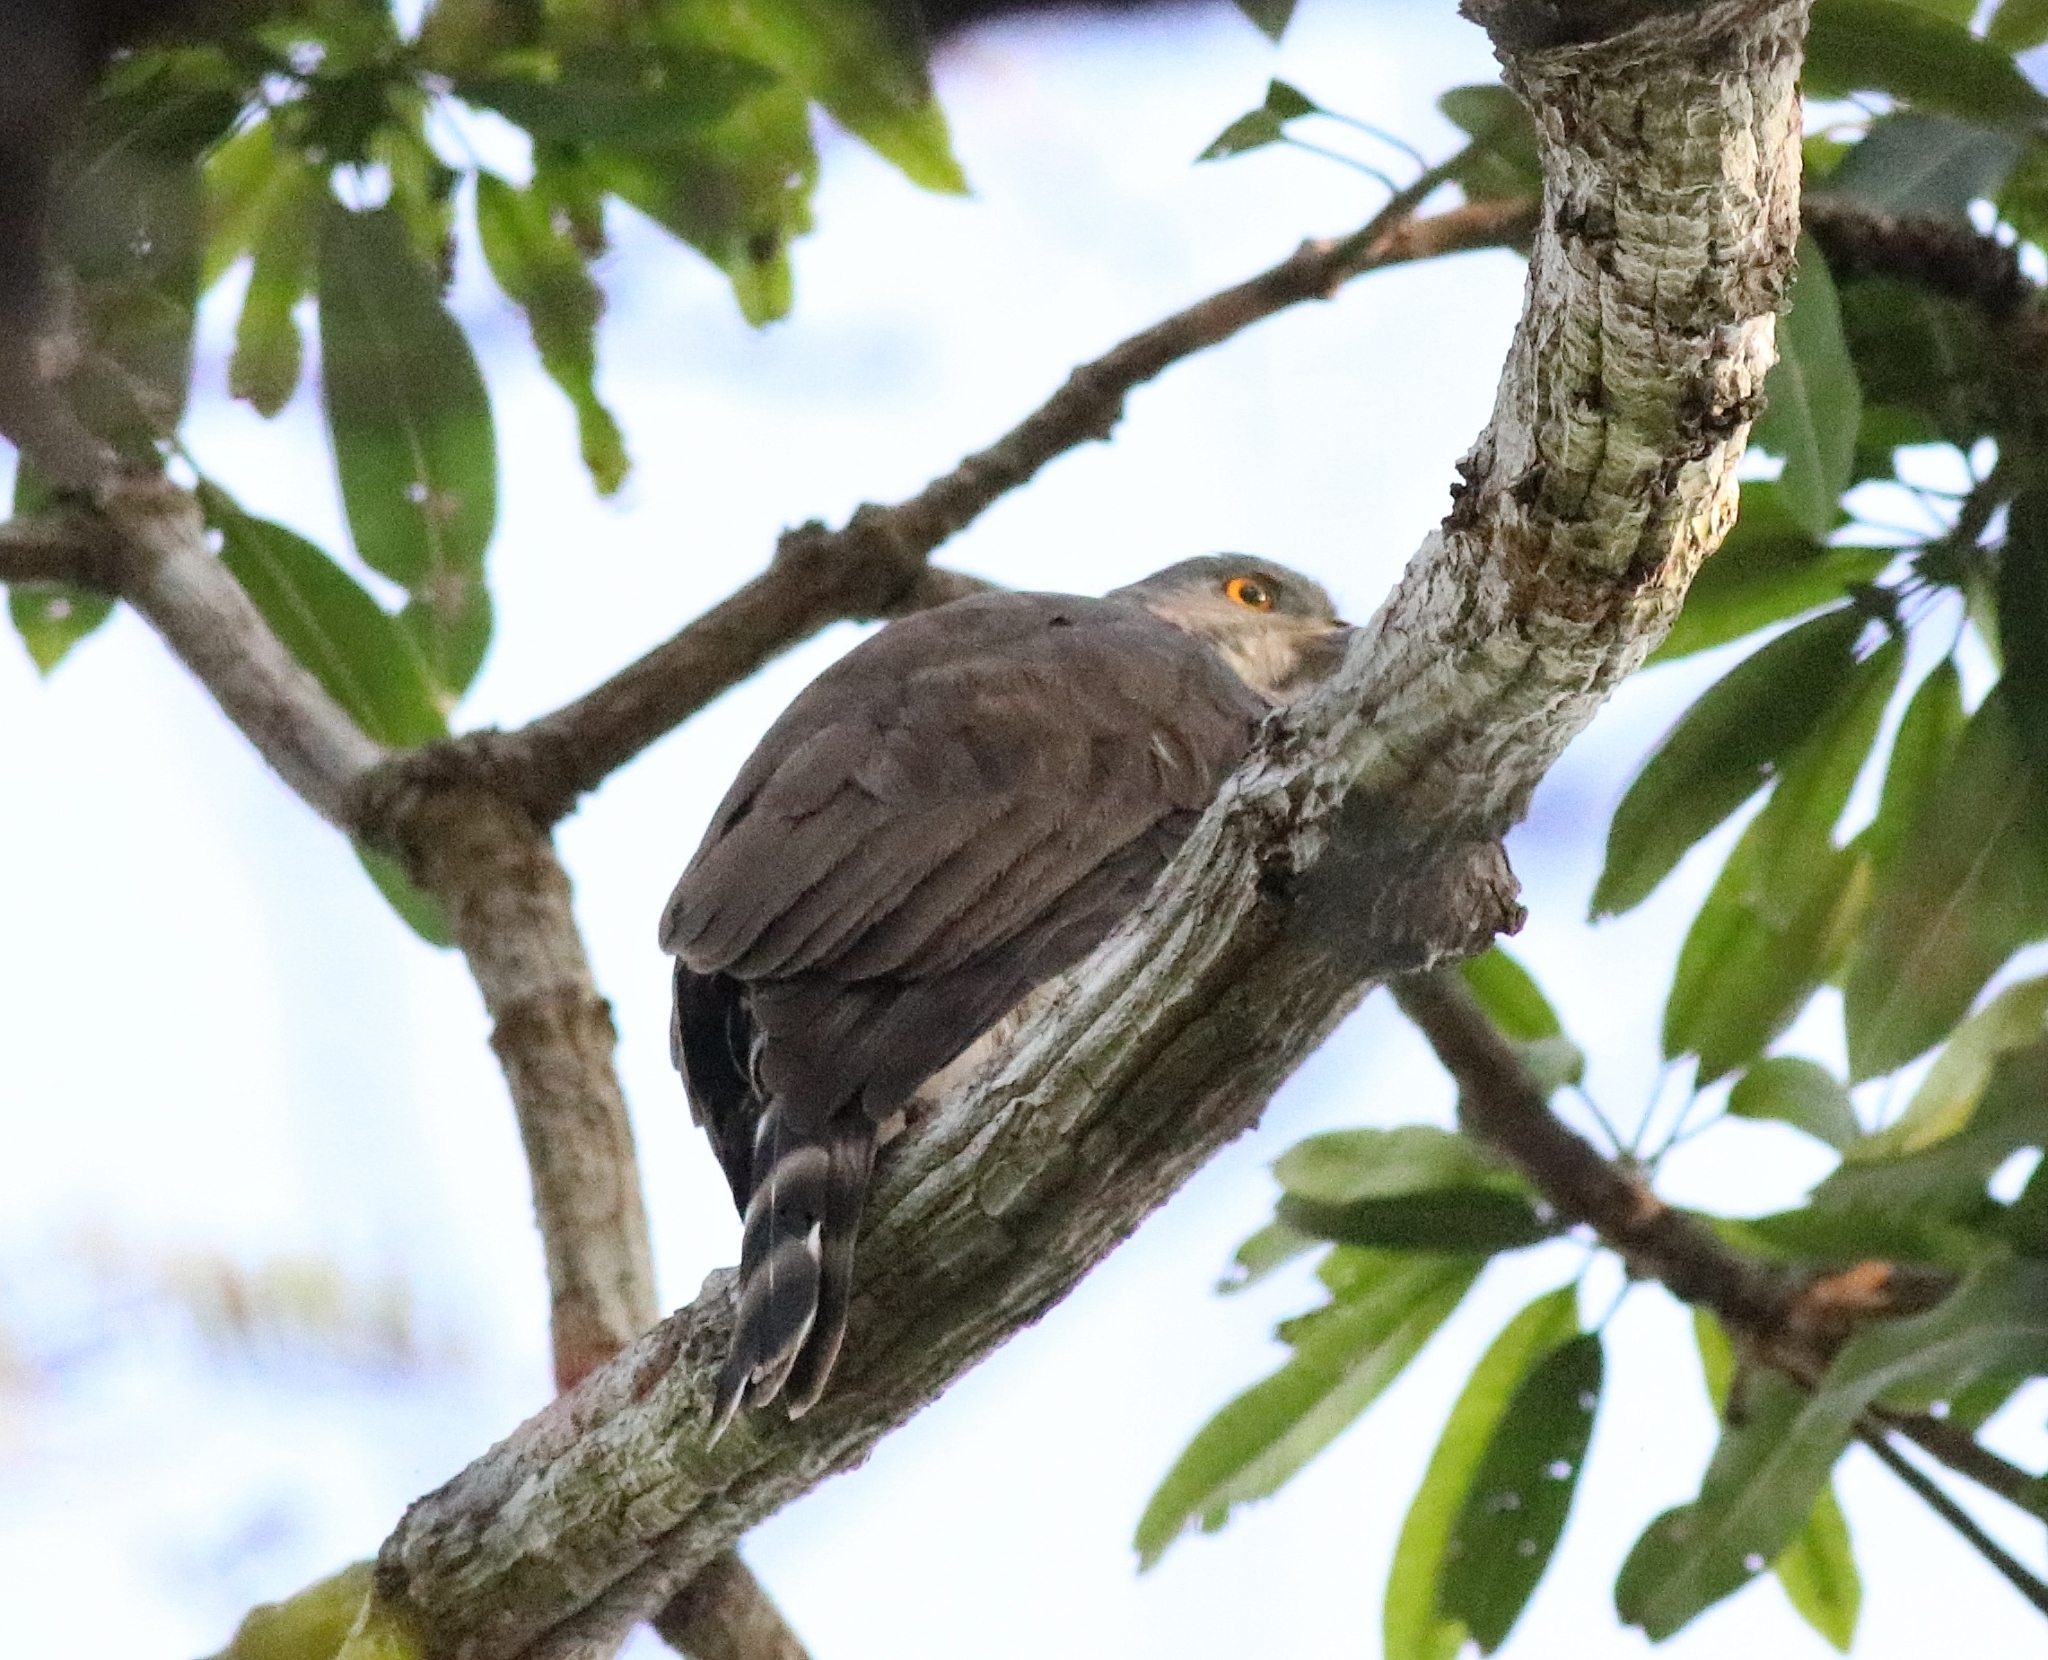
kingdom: Animalia
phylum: Chordata
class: Aves
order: Accipitriformes
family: Accipitridae
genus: Accipiter
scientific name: Accipiter trivirgatus
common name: Crested goshawk
